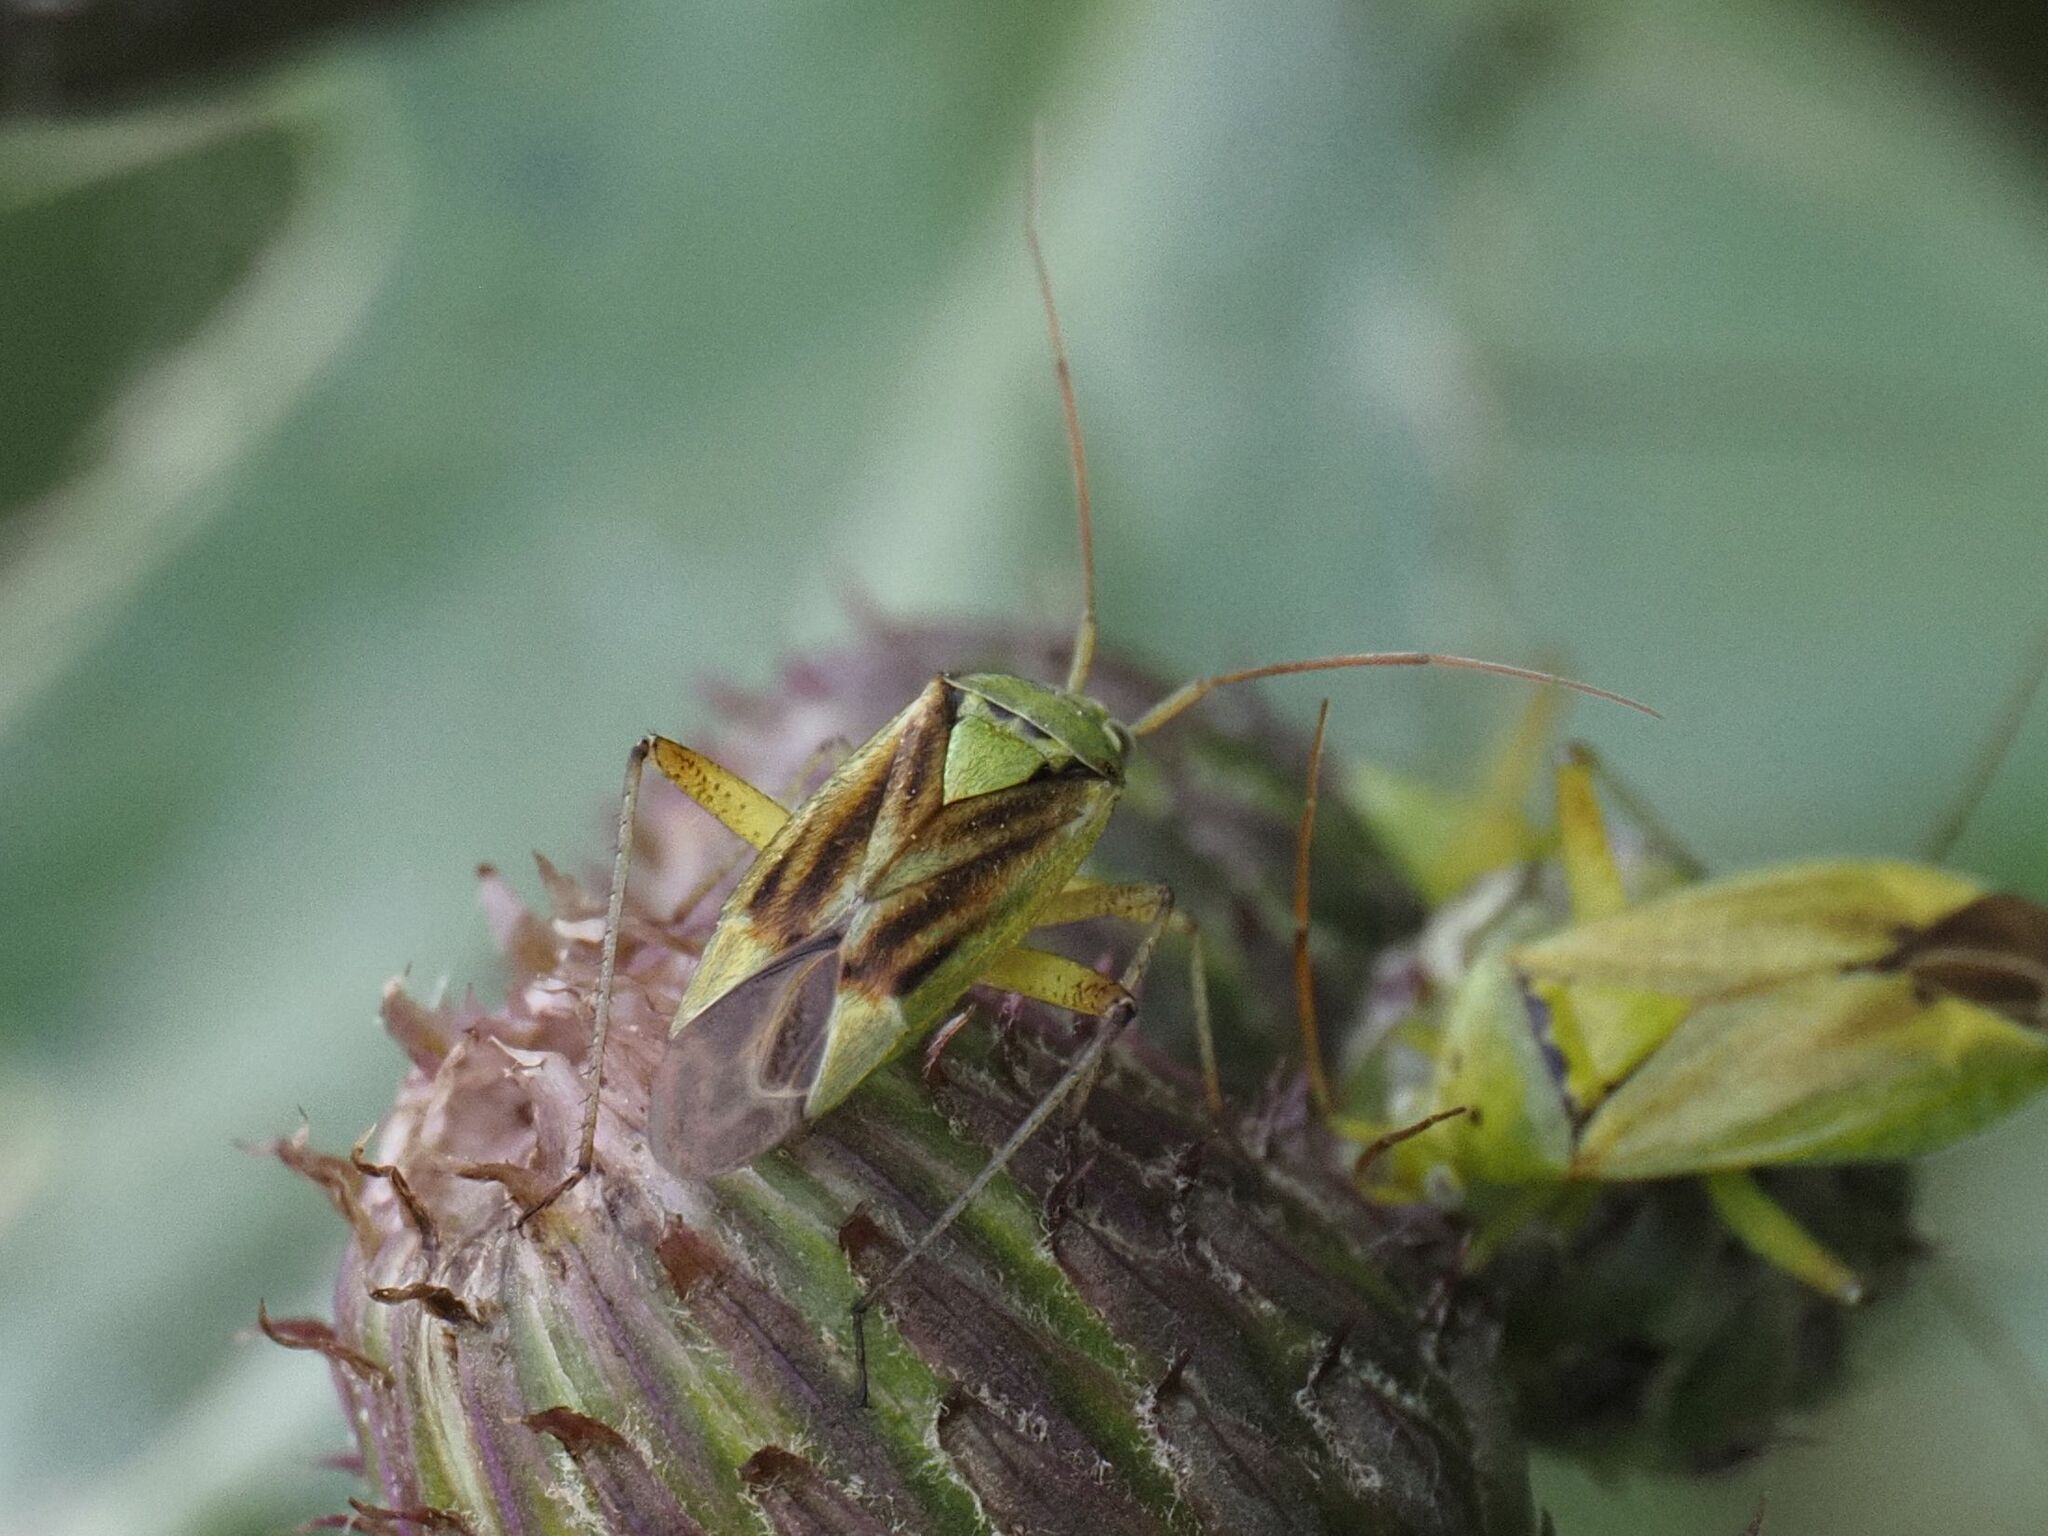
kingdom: Animalia
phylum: Arthropoda
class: Insecta
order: Hemiptera
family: Miridae
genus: Closterotomus
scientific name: Closterotomus norvegicus
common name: Plant bug
